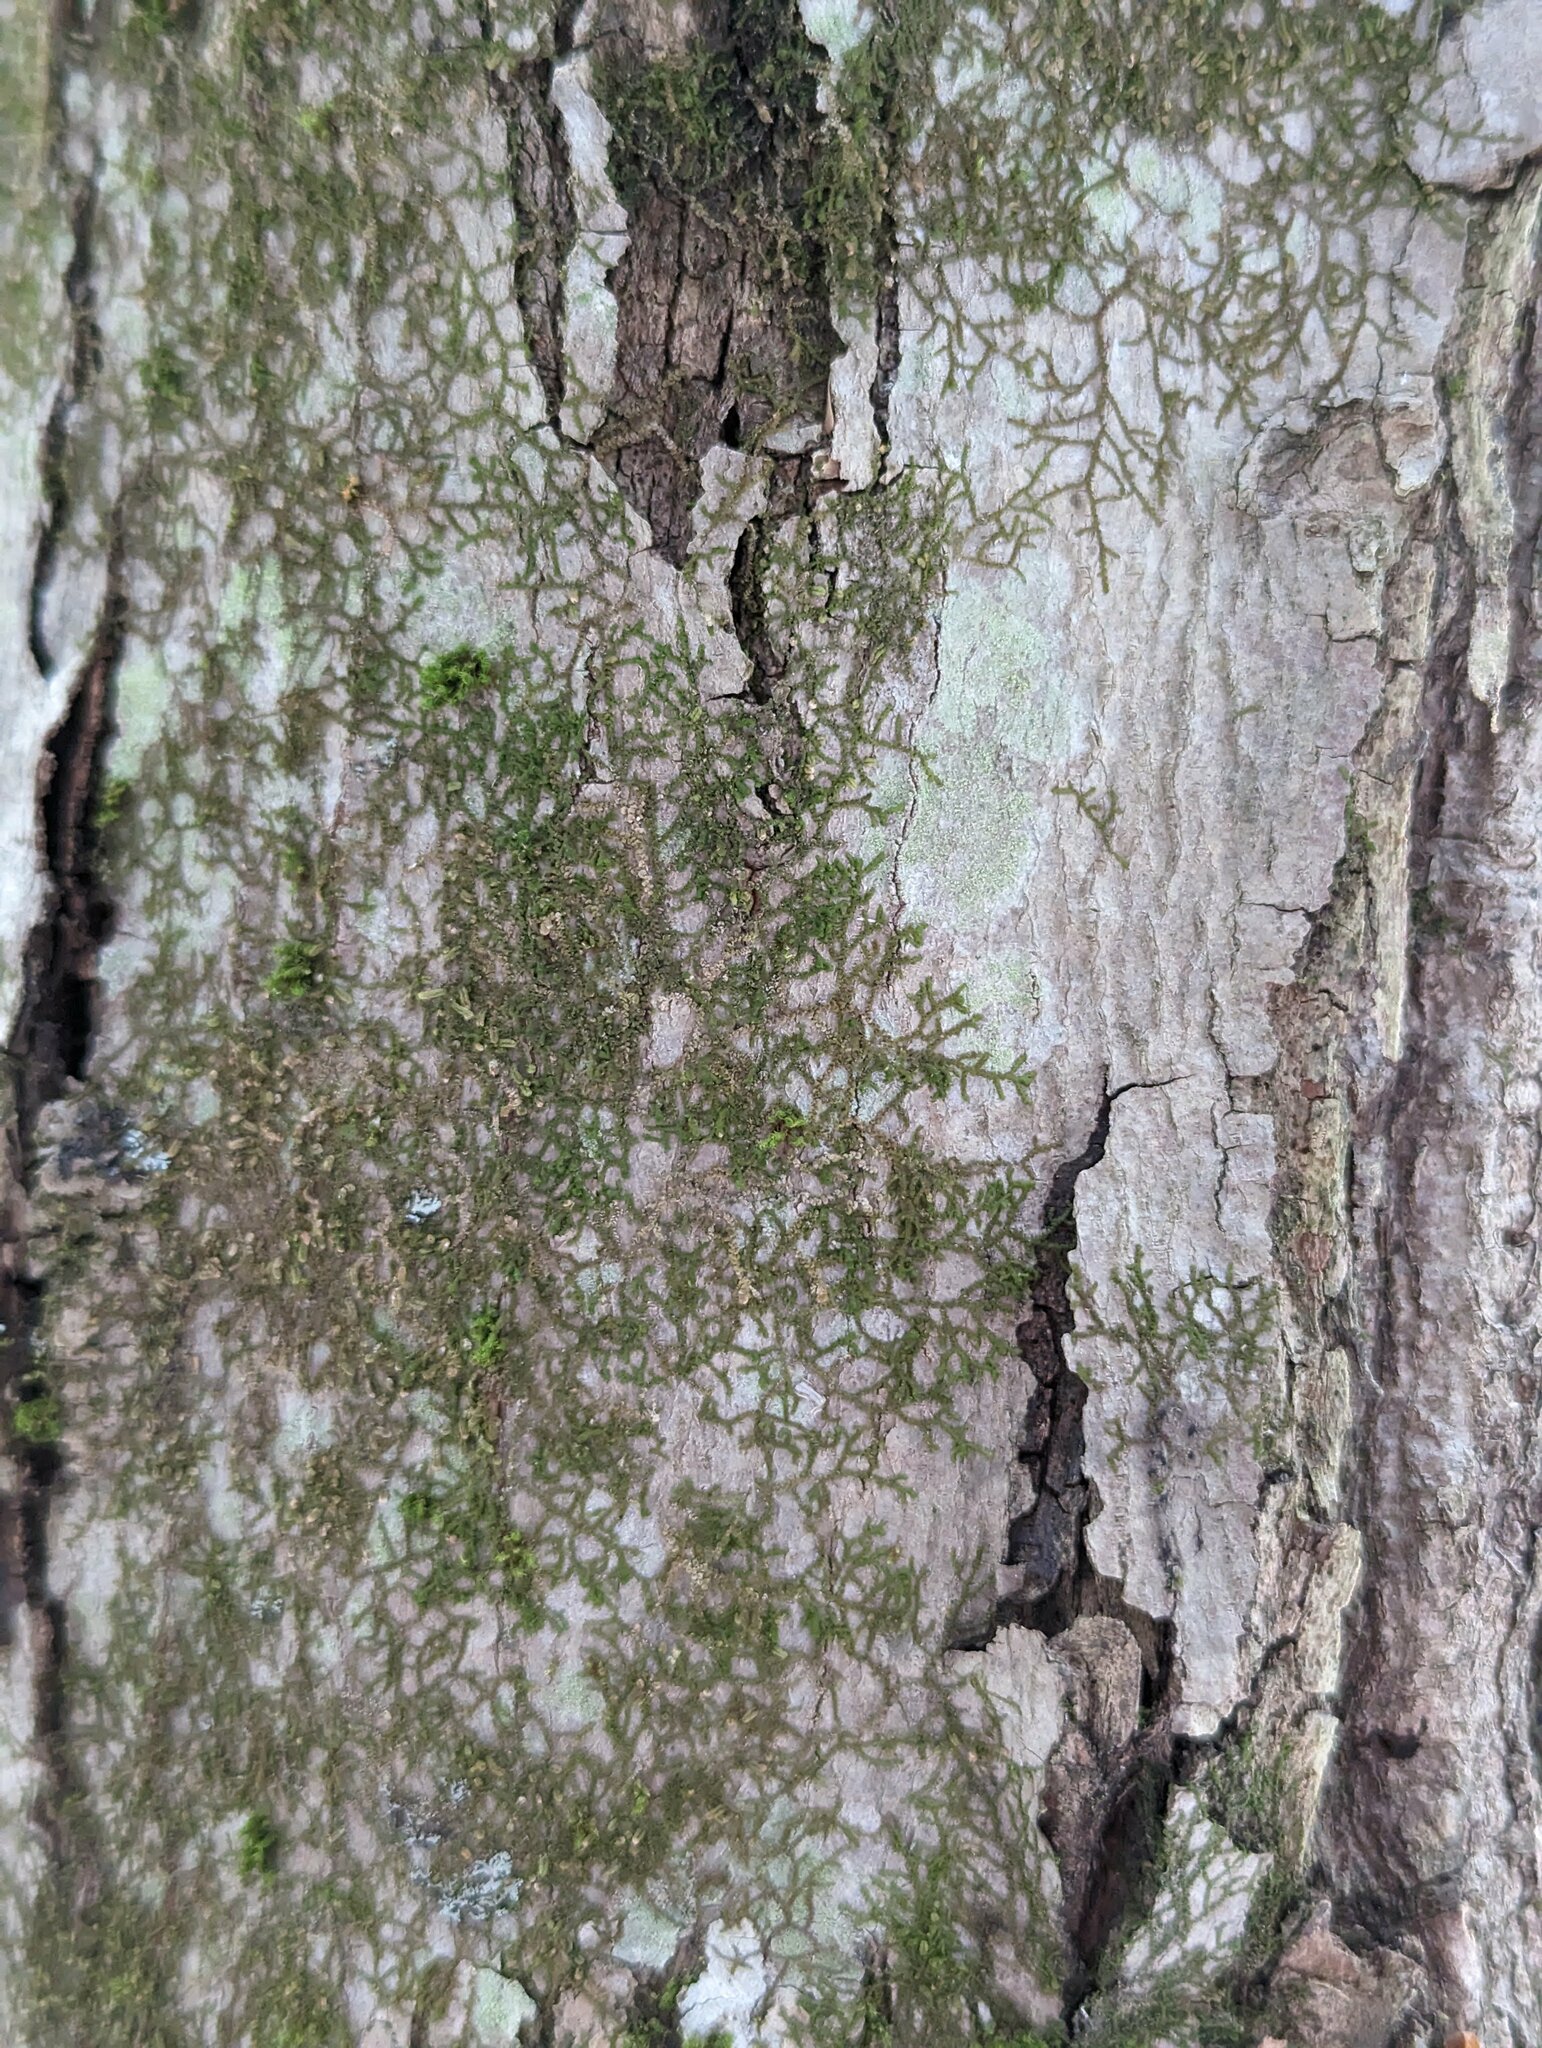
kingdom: Plantae
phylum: Marchantiophyta
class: Jungermanniopsida
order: Porellales
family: Frullaniaceae
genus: Frullania
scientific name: Frullania eboracensis
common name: New york scalewort
